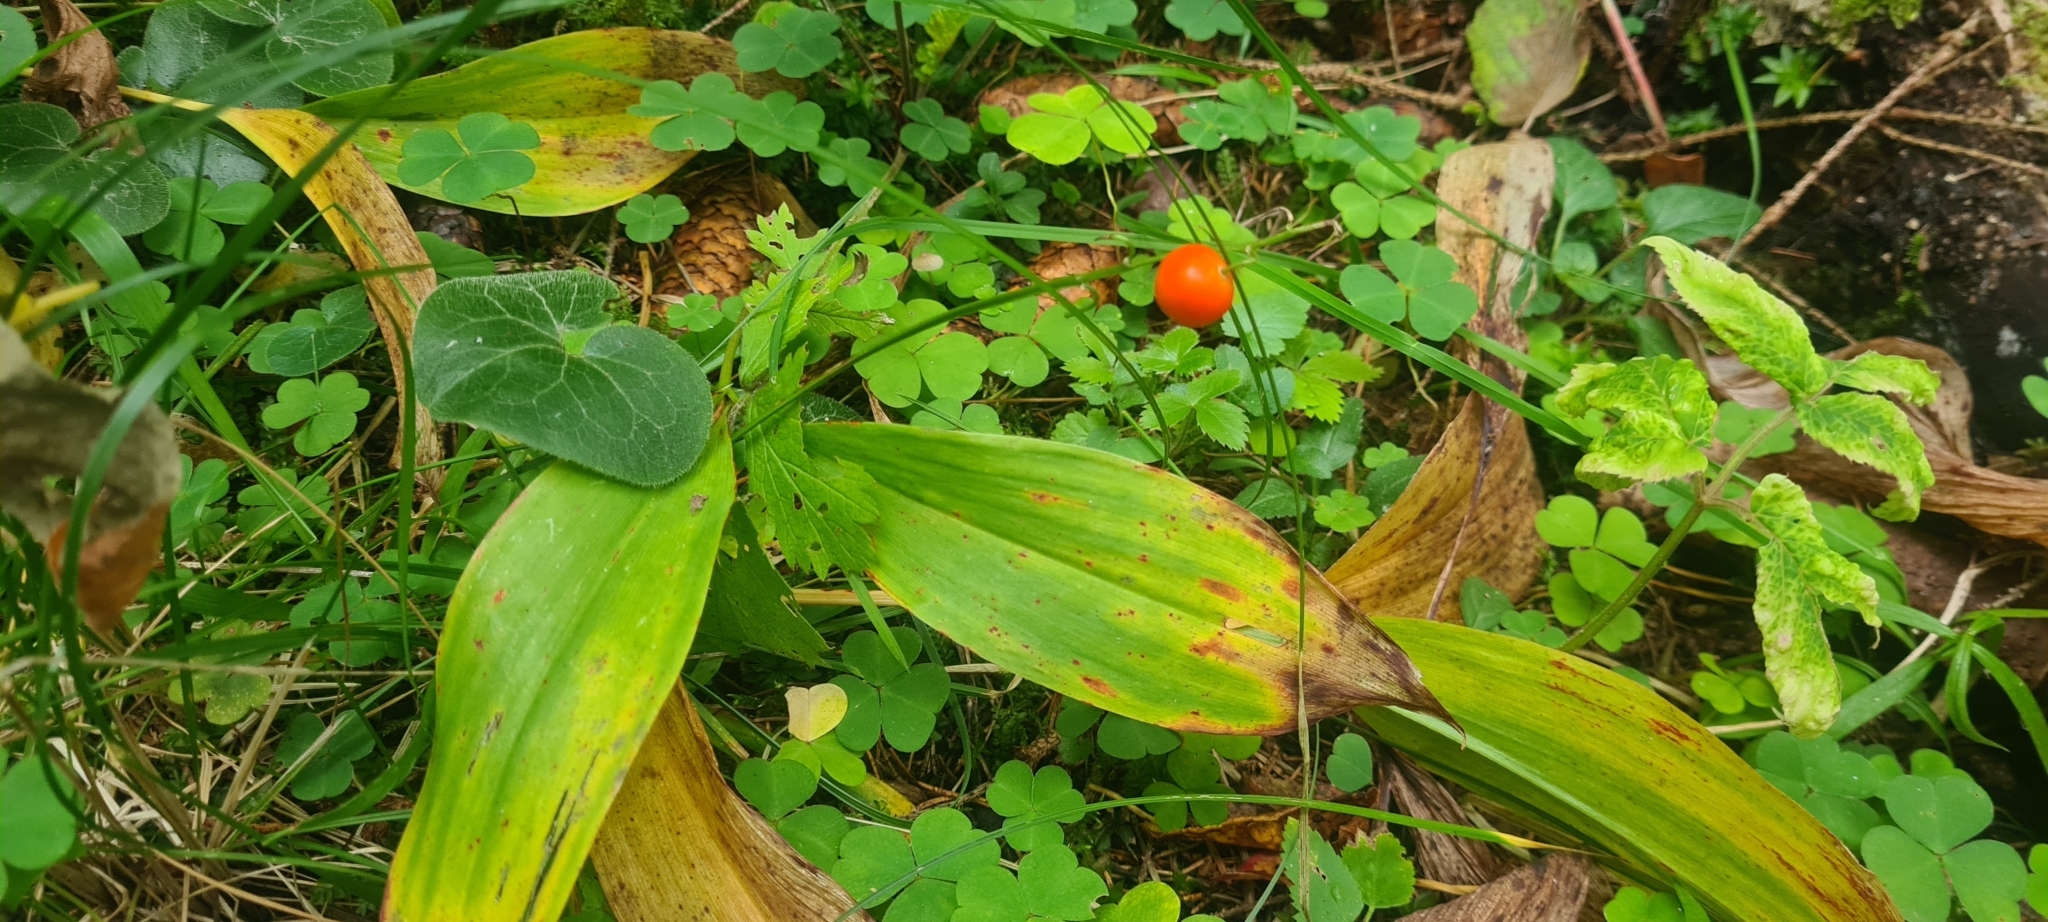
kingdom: Plantae
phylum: Tracheophyta
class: Liliopsida
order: Asparagales
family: Asparagaceae
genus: Convallaria
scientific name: Convallaria majalis
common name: Lily-of-the-valley
